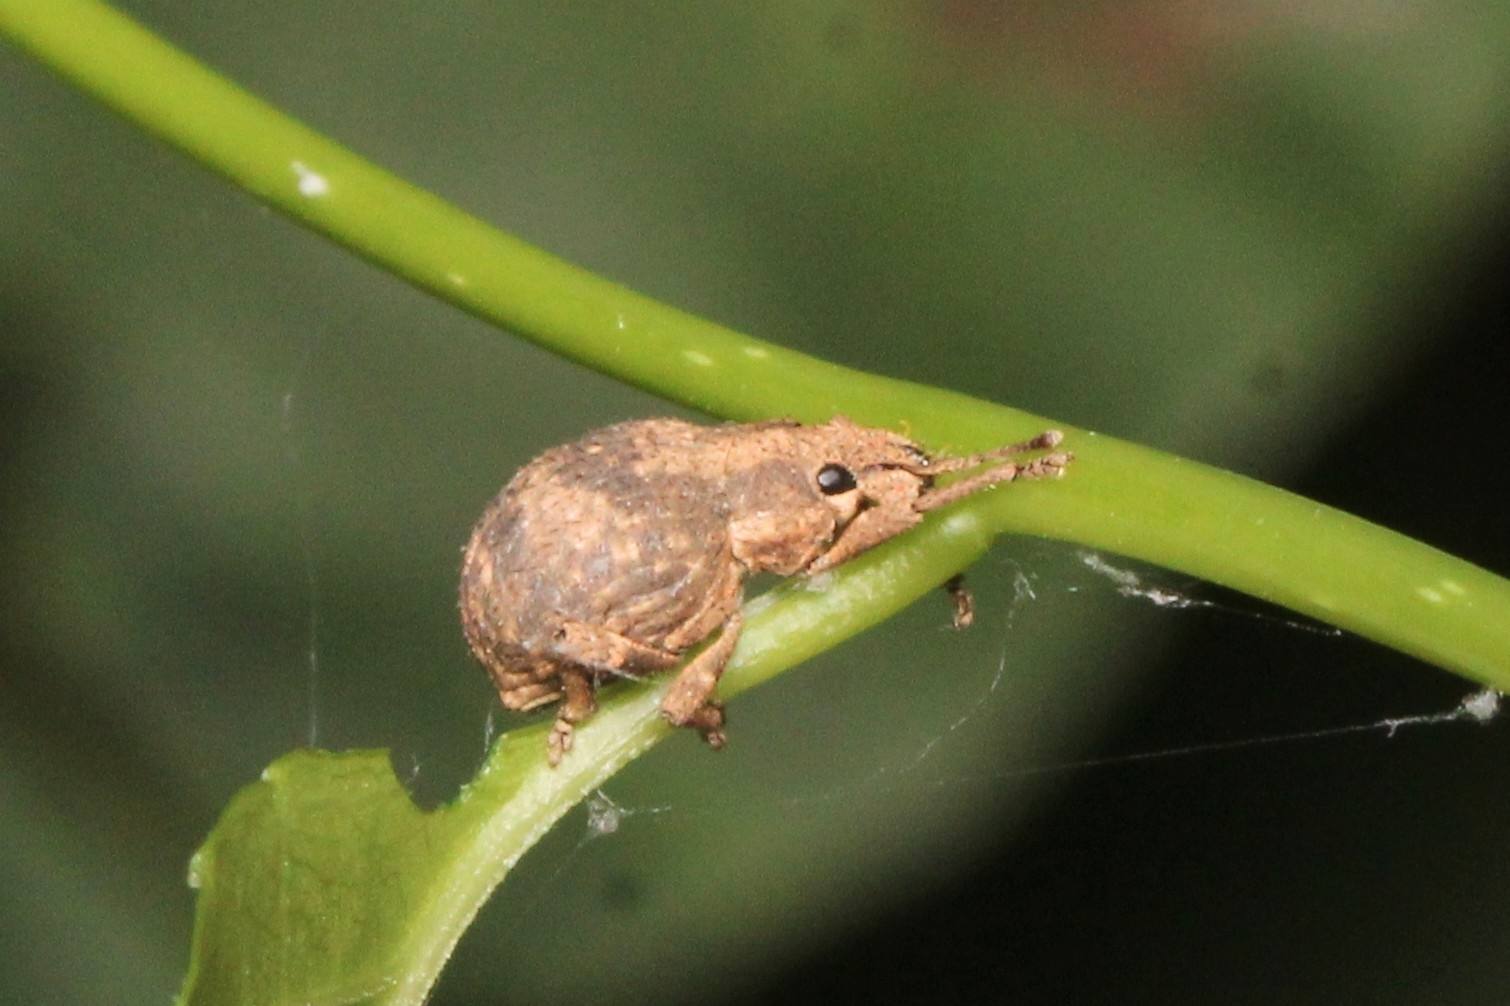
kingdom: Animalia
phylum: Arthropoda
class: Insecta
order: Coleoptera
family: Curculionidae
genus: Pseudocneorhinus
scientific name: Pseudocneorhinus bifasciatus
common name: Two-banded japanese weevil
